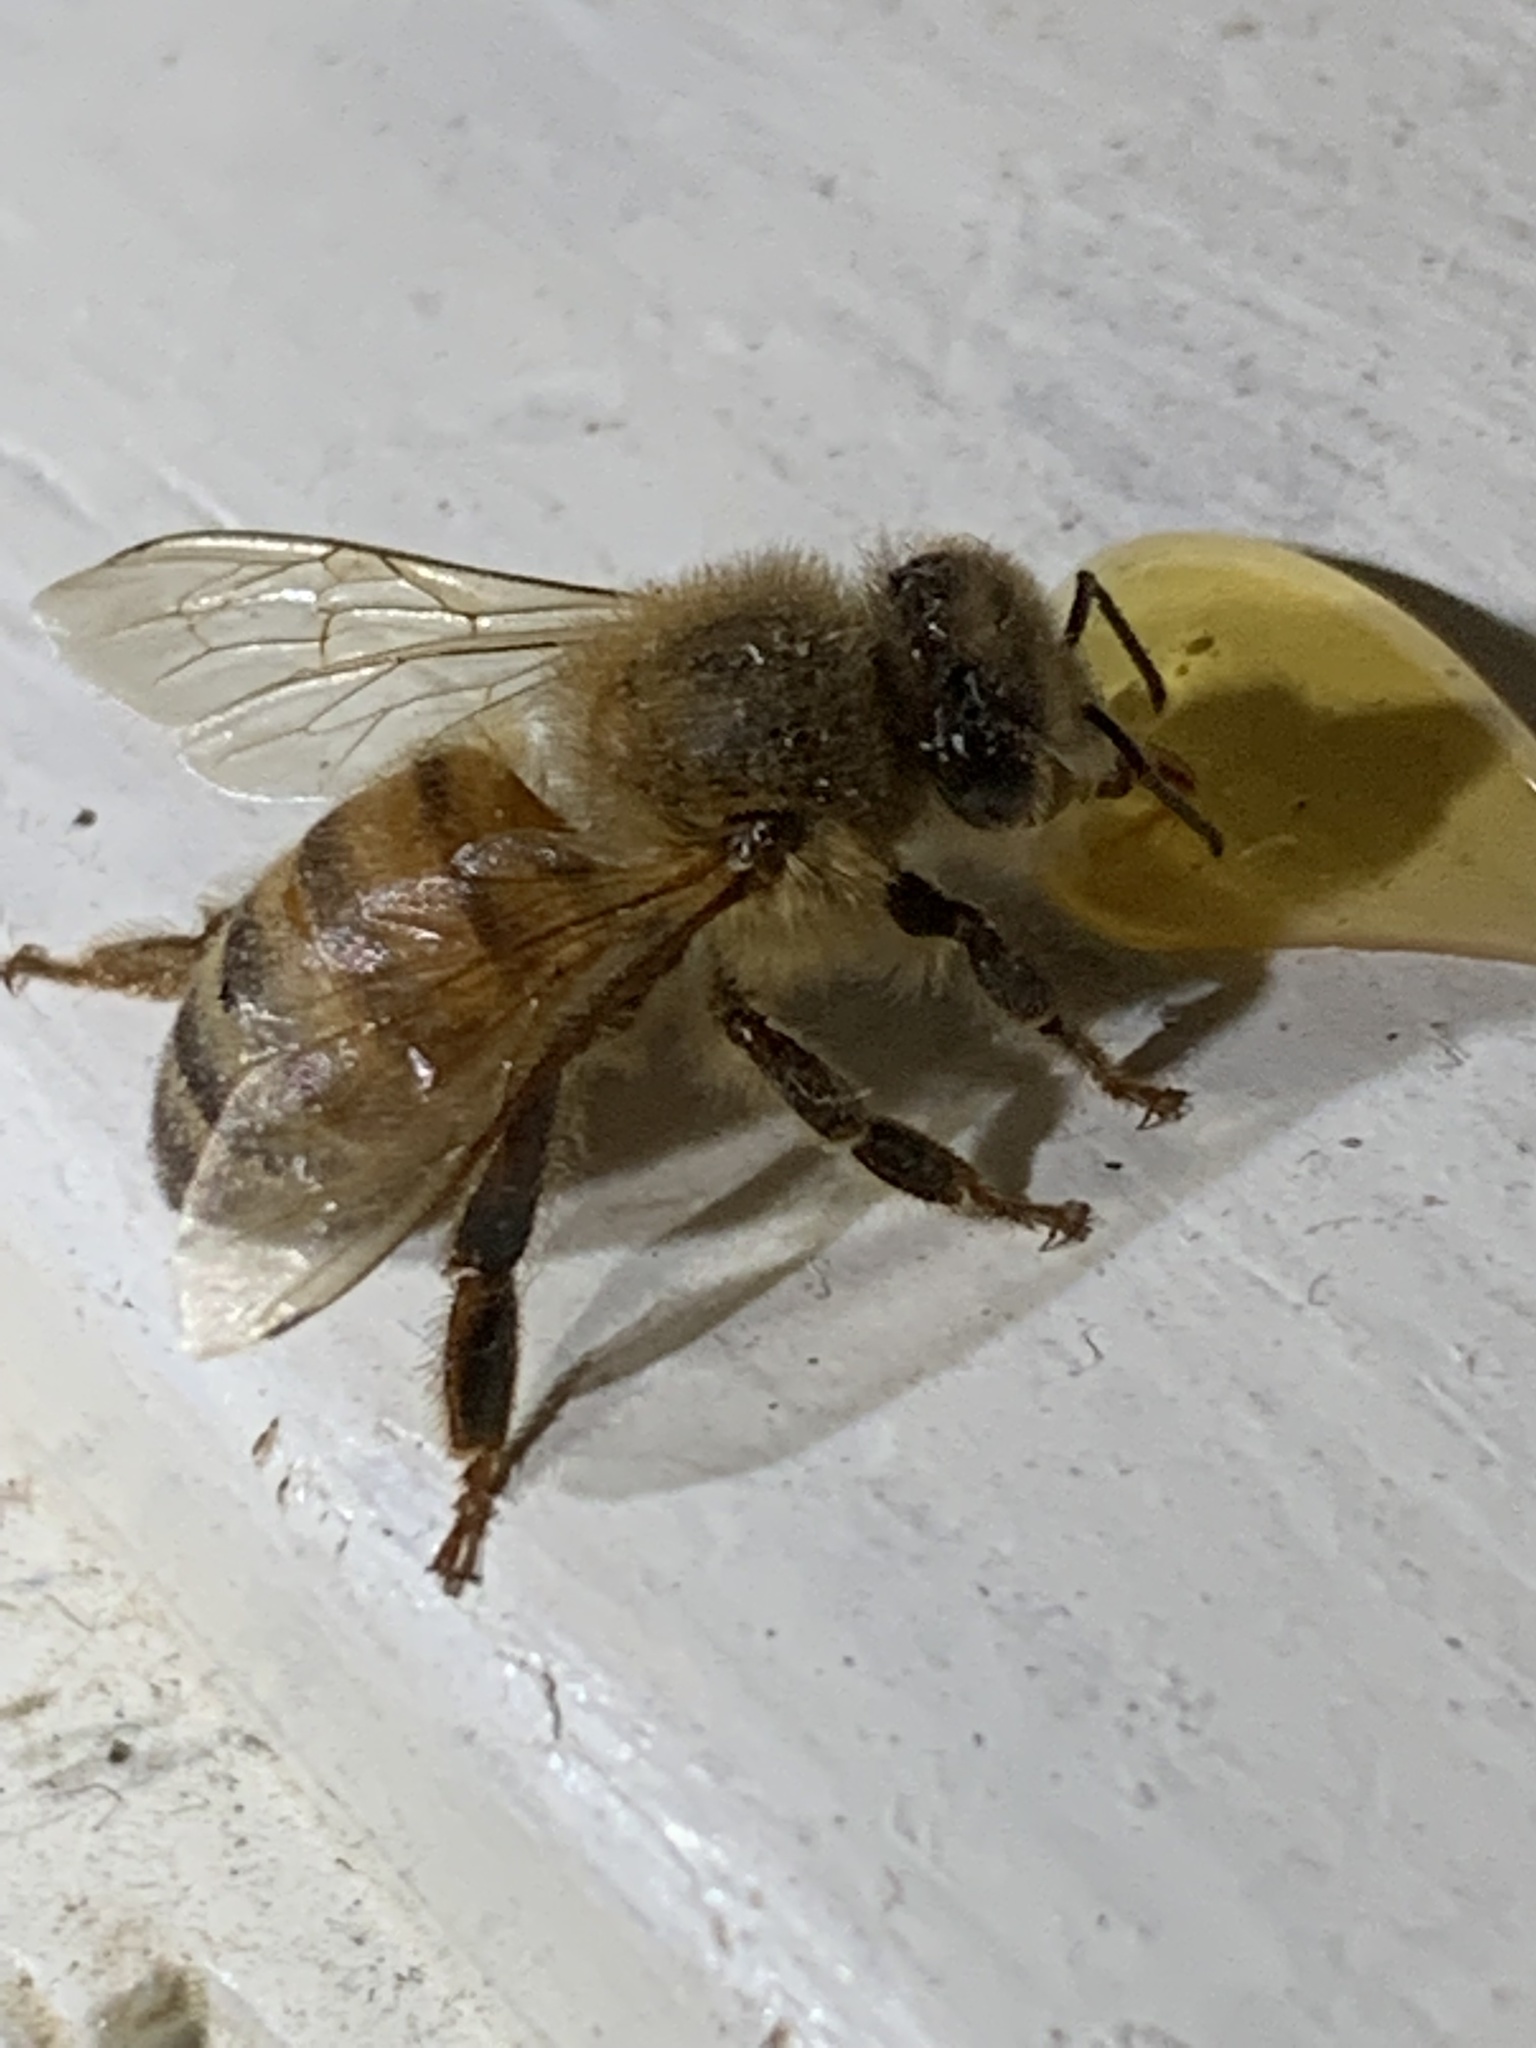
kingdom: Animalia
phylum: Arthropoda
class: Insecta
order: Hymenoptera
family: Apidae
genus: Apis
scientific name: Apis mellifera
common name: Honey bee
